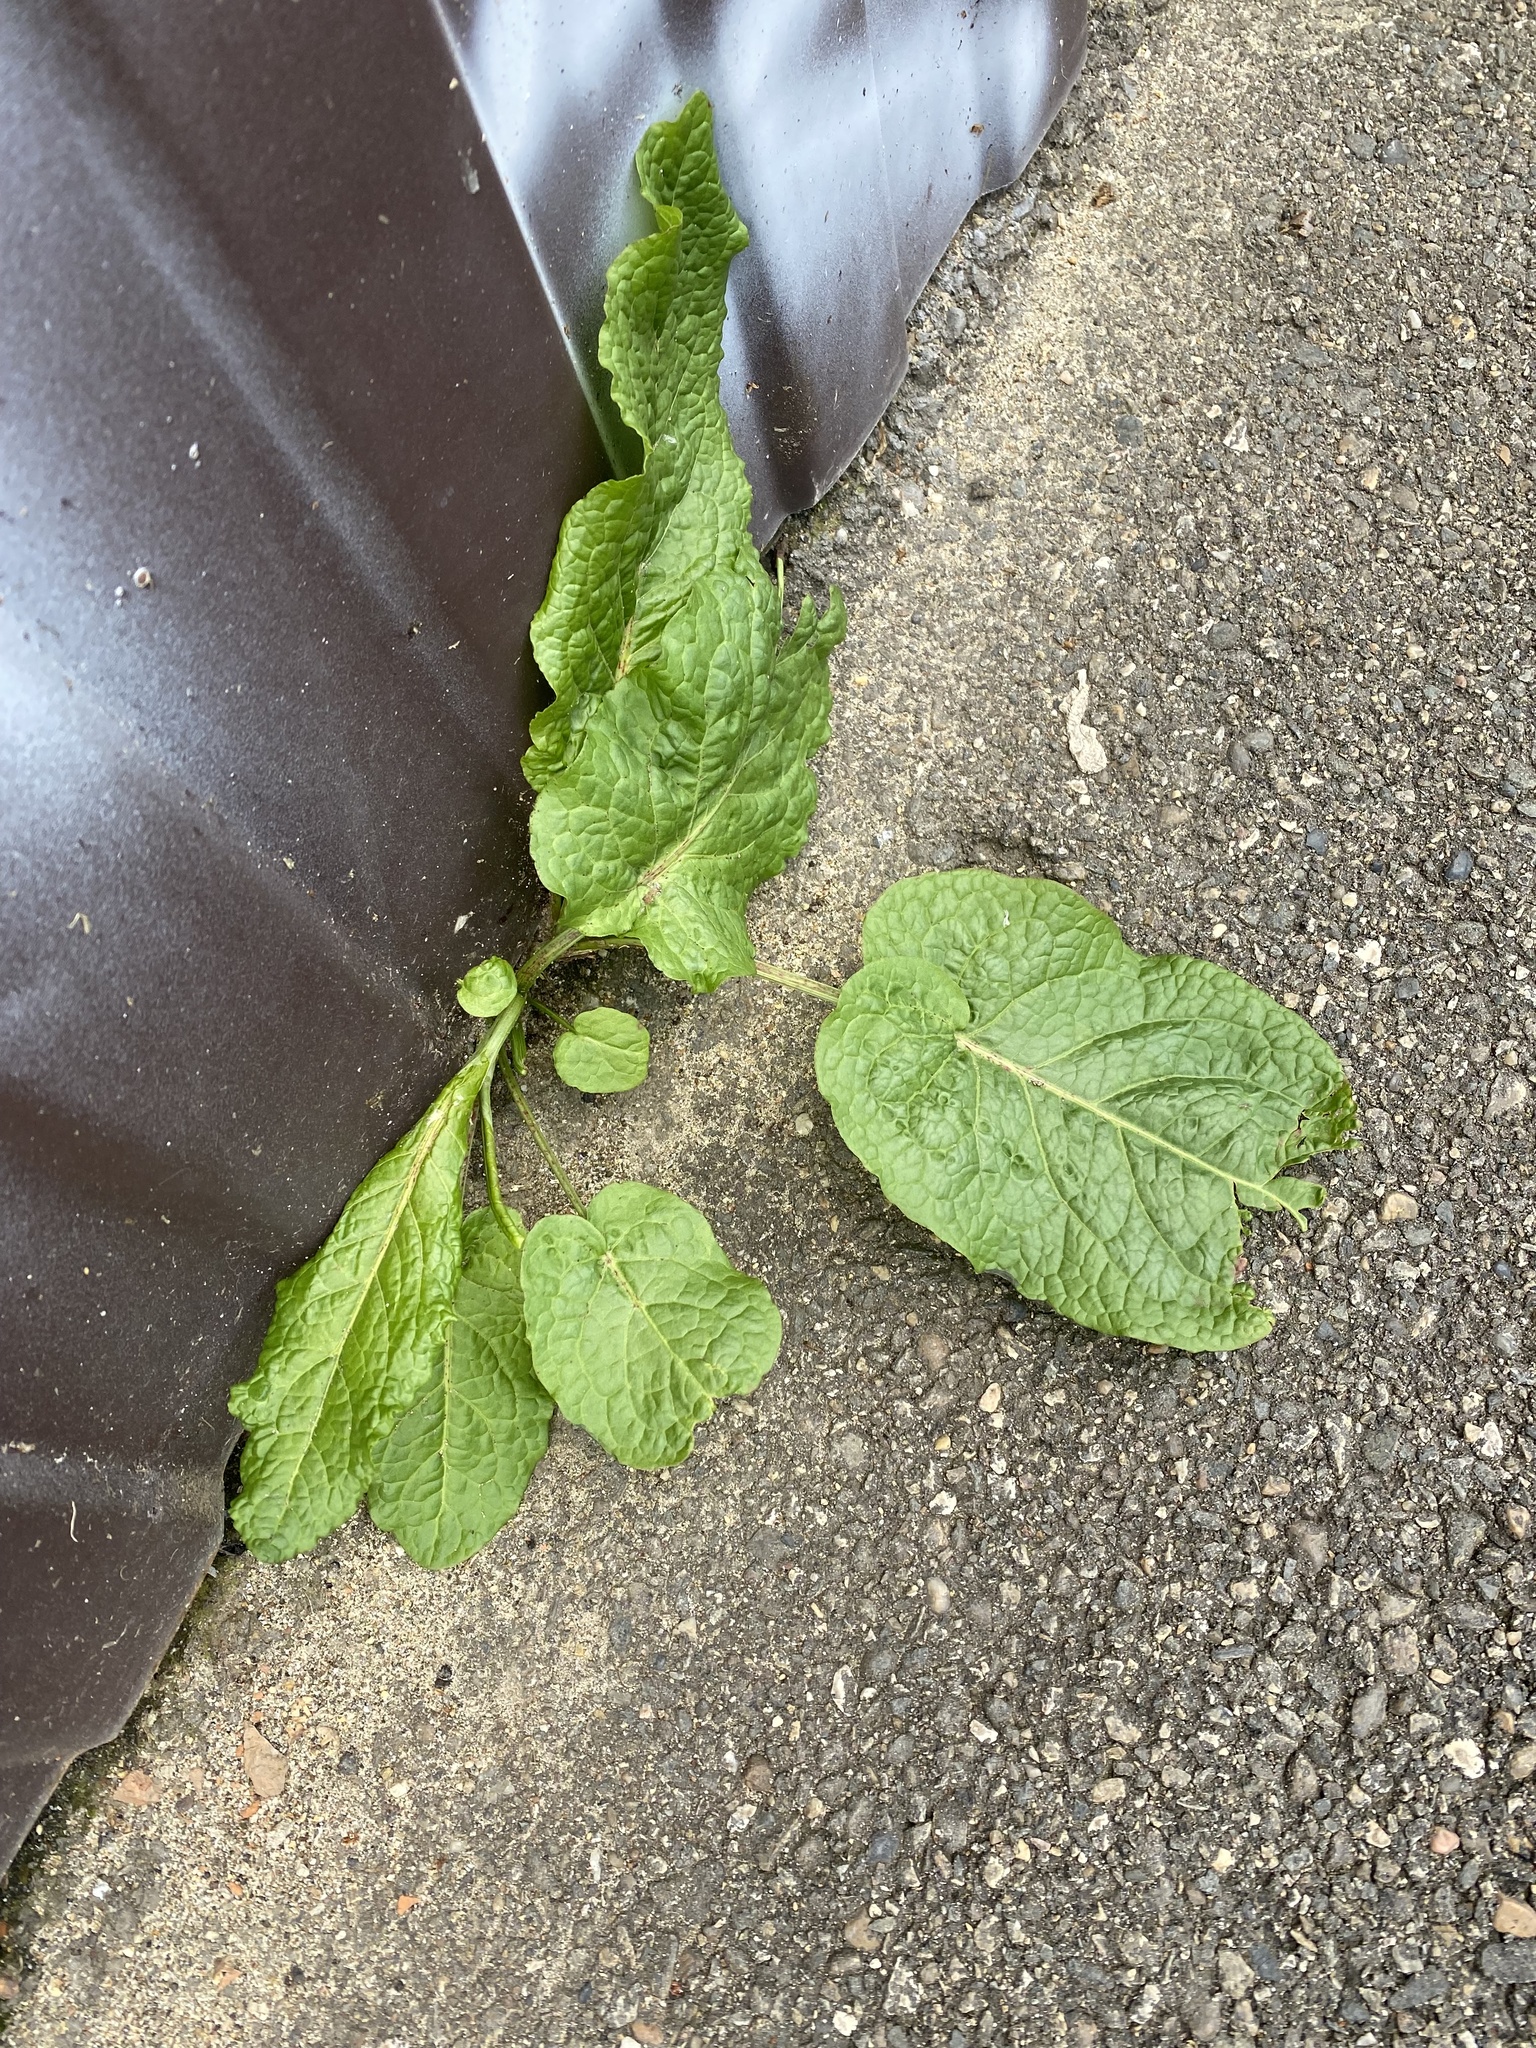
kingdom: Plantae
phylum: Tracheophyta
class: Magnoliopsida
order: Caryophyllales
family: Polygonaceae
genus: Rumex
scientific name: Rumex obtusifolius
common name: Bitter dock
